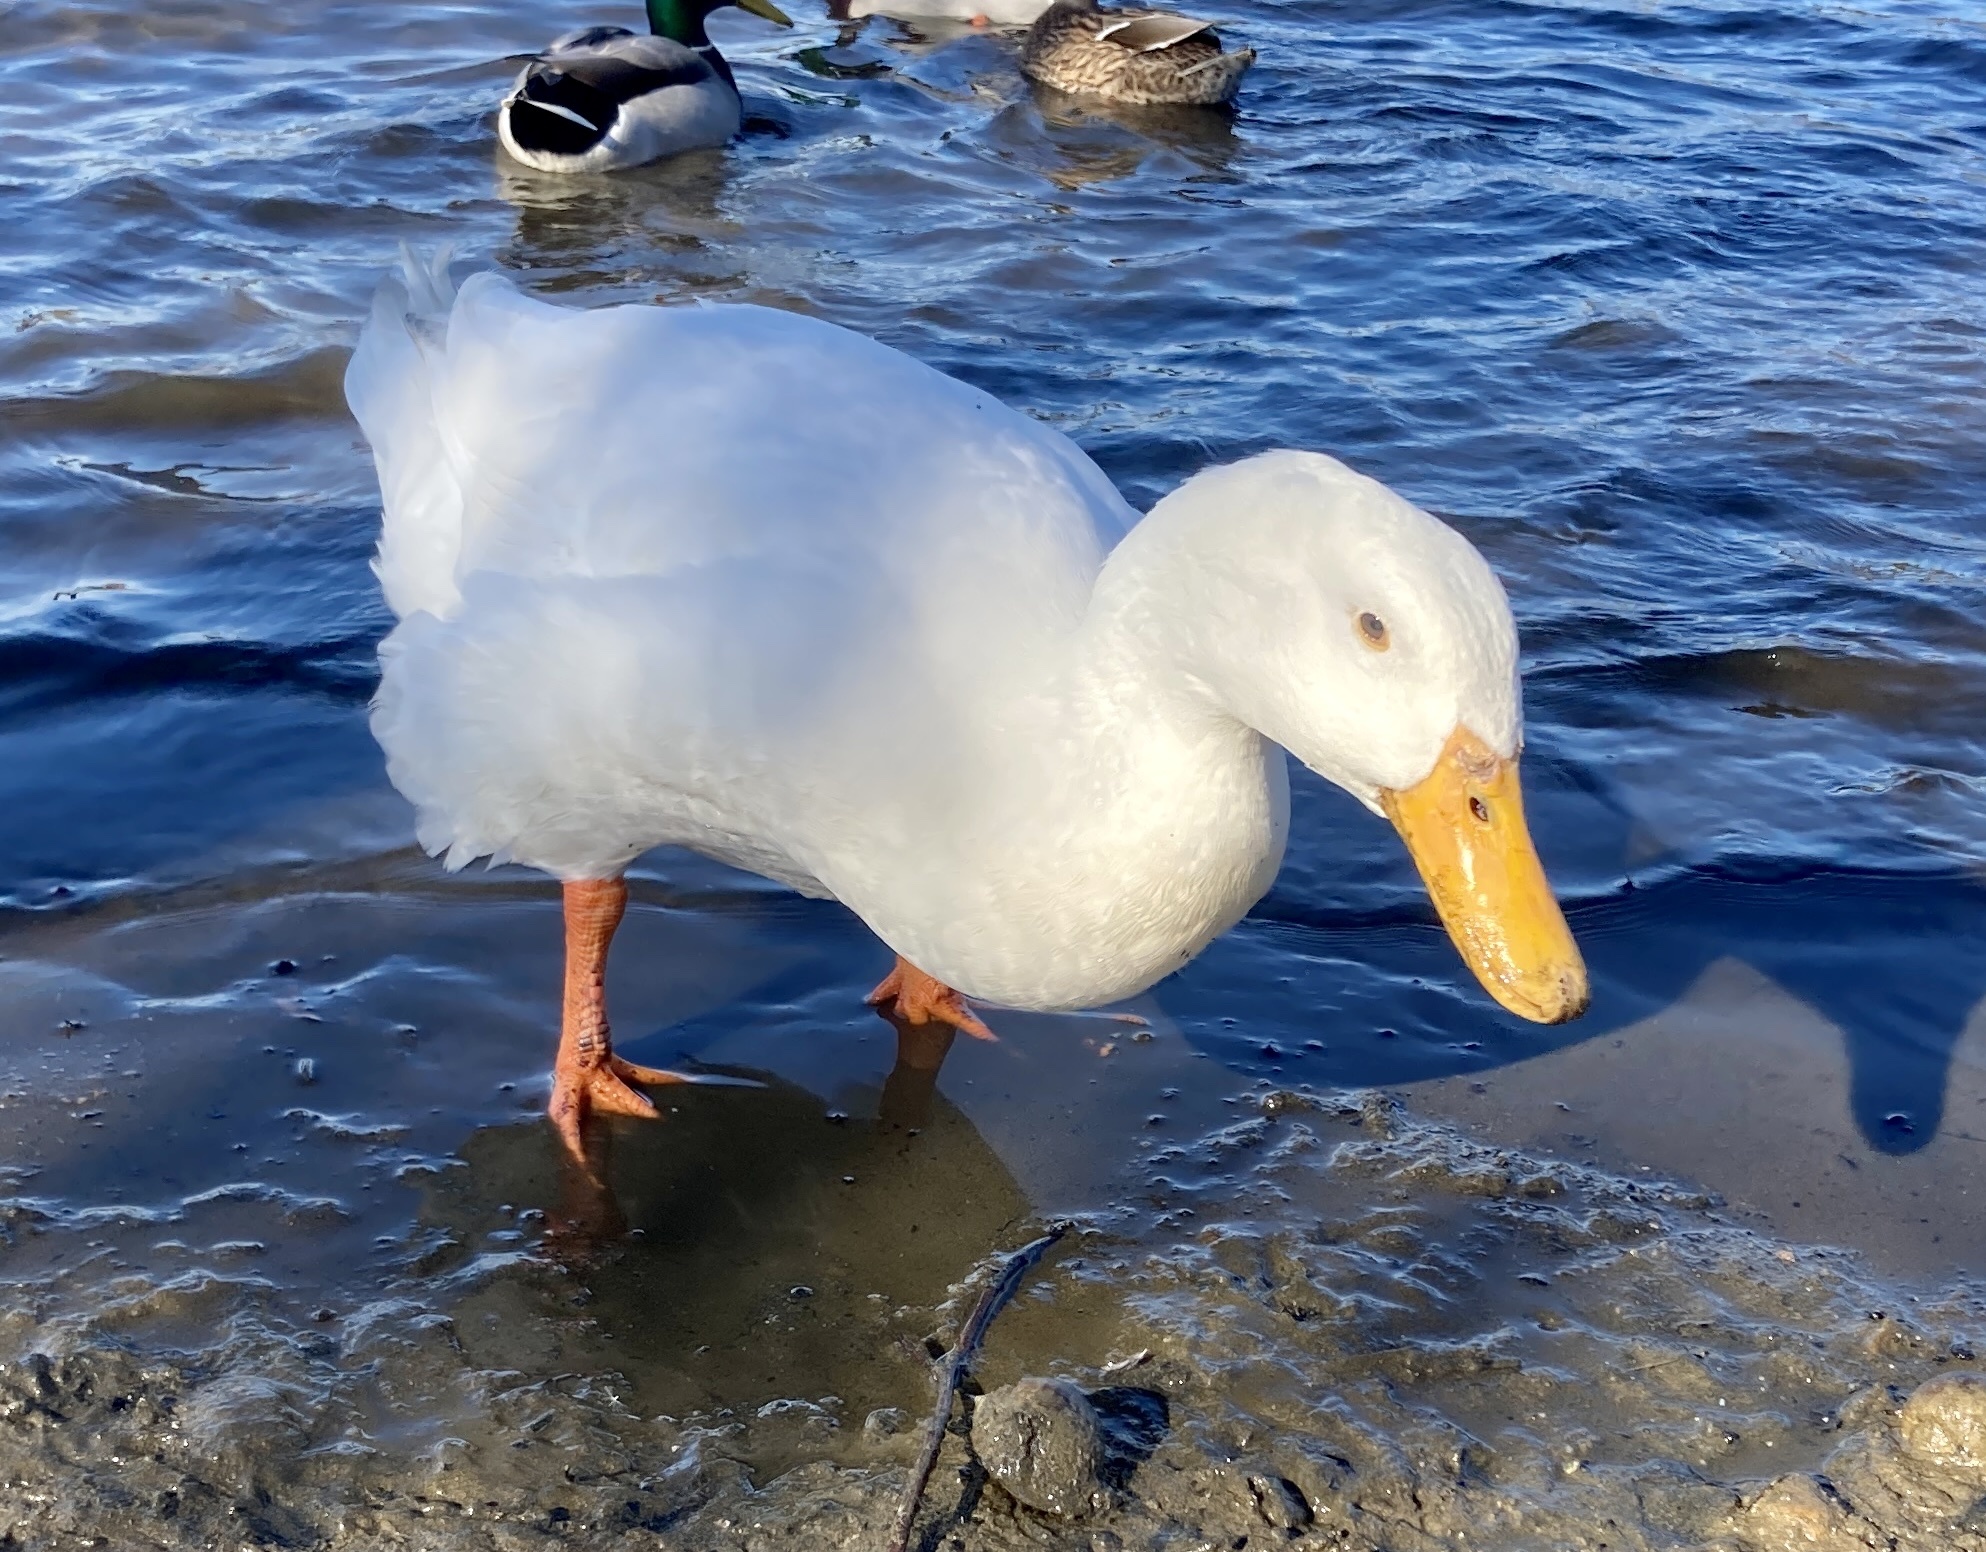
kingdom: Animalia
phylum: Chordata
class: Aves
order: Anseriformes
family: Anatidae
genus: Anas
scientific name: Anas platyrhynchos
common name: Mallard
